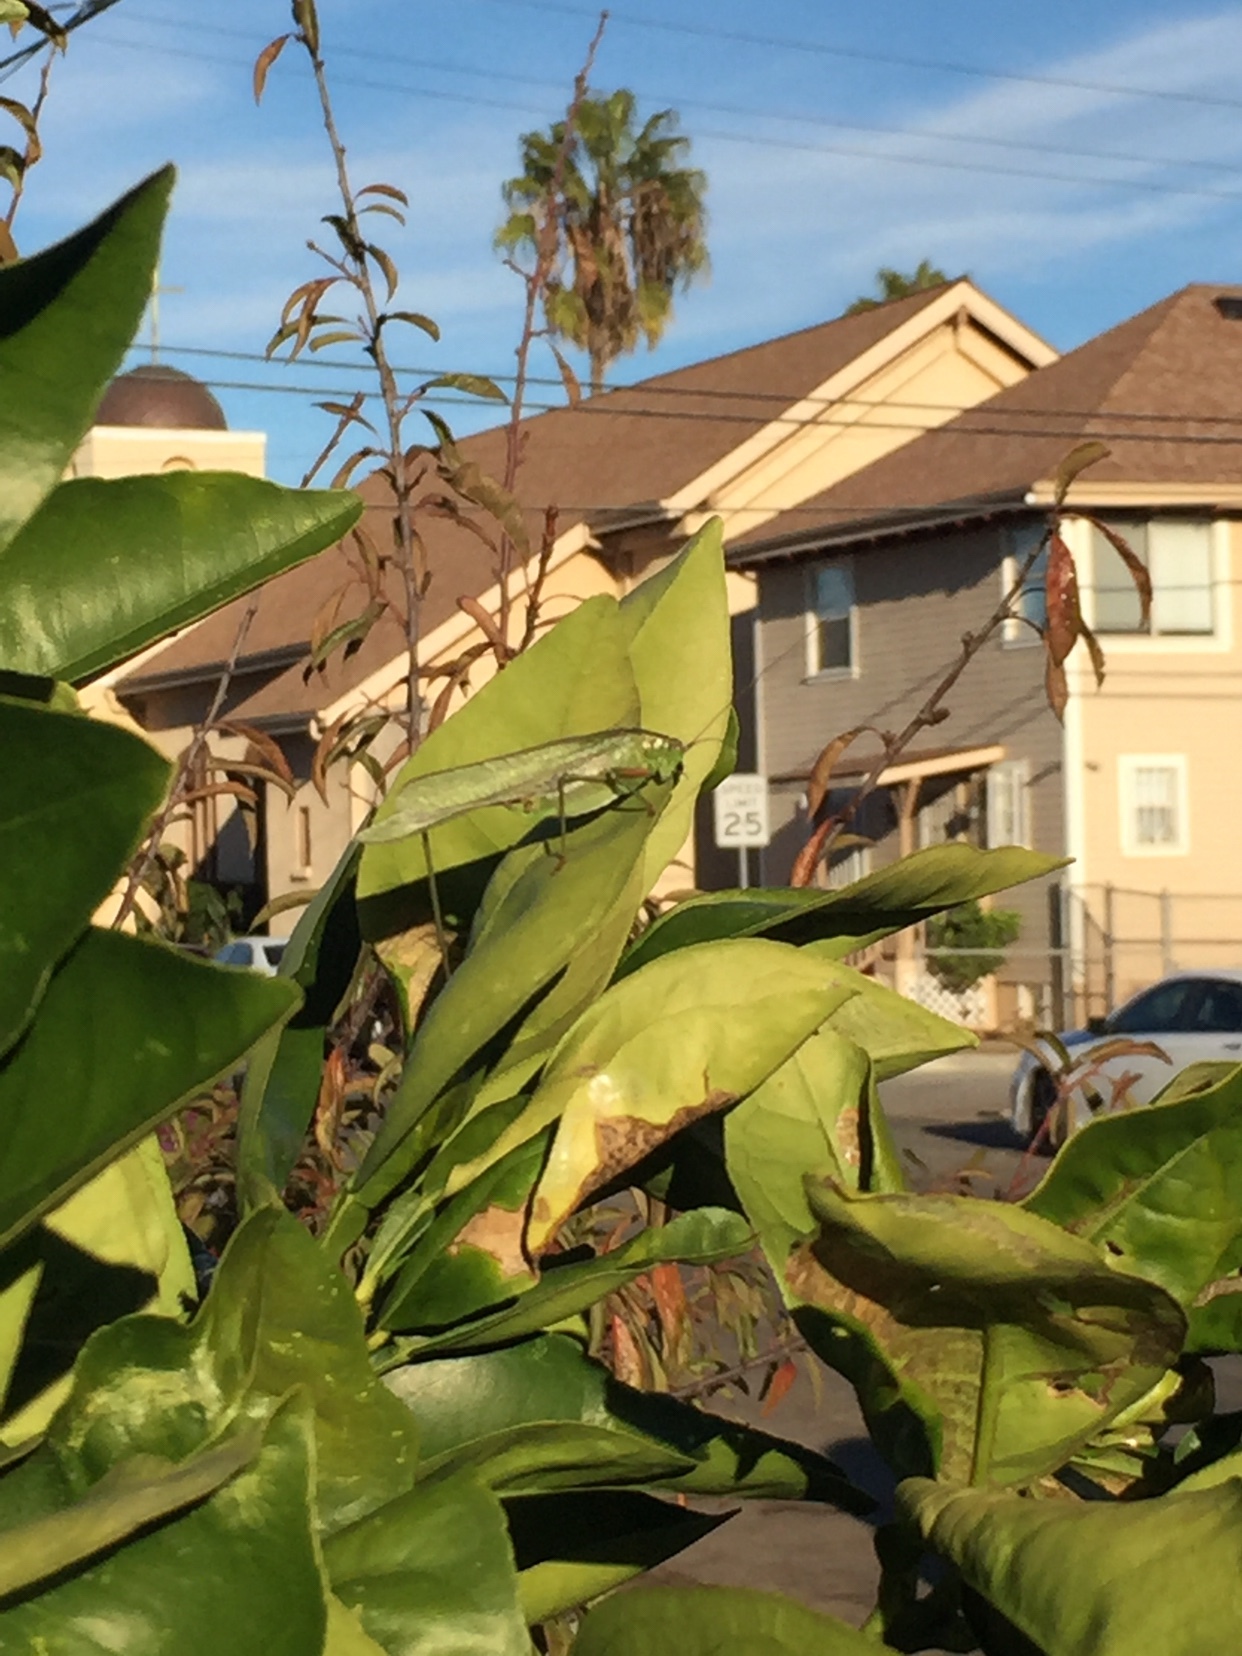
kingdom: Animalia
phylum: Arthropoda
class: Insecta
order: Orthoptera
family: Tettigoniidae
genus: Scudderia
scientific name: Scudderia
